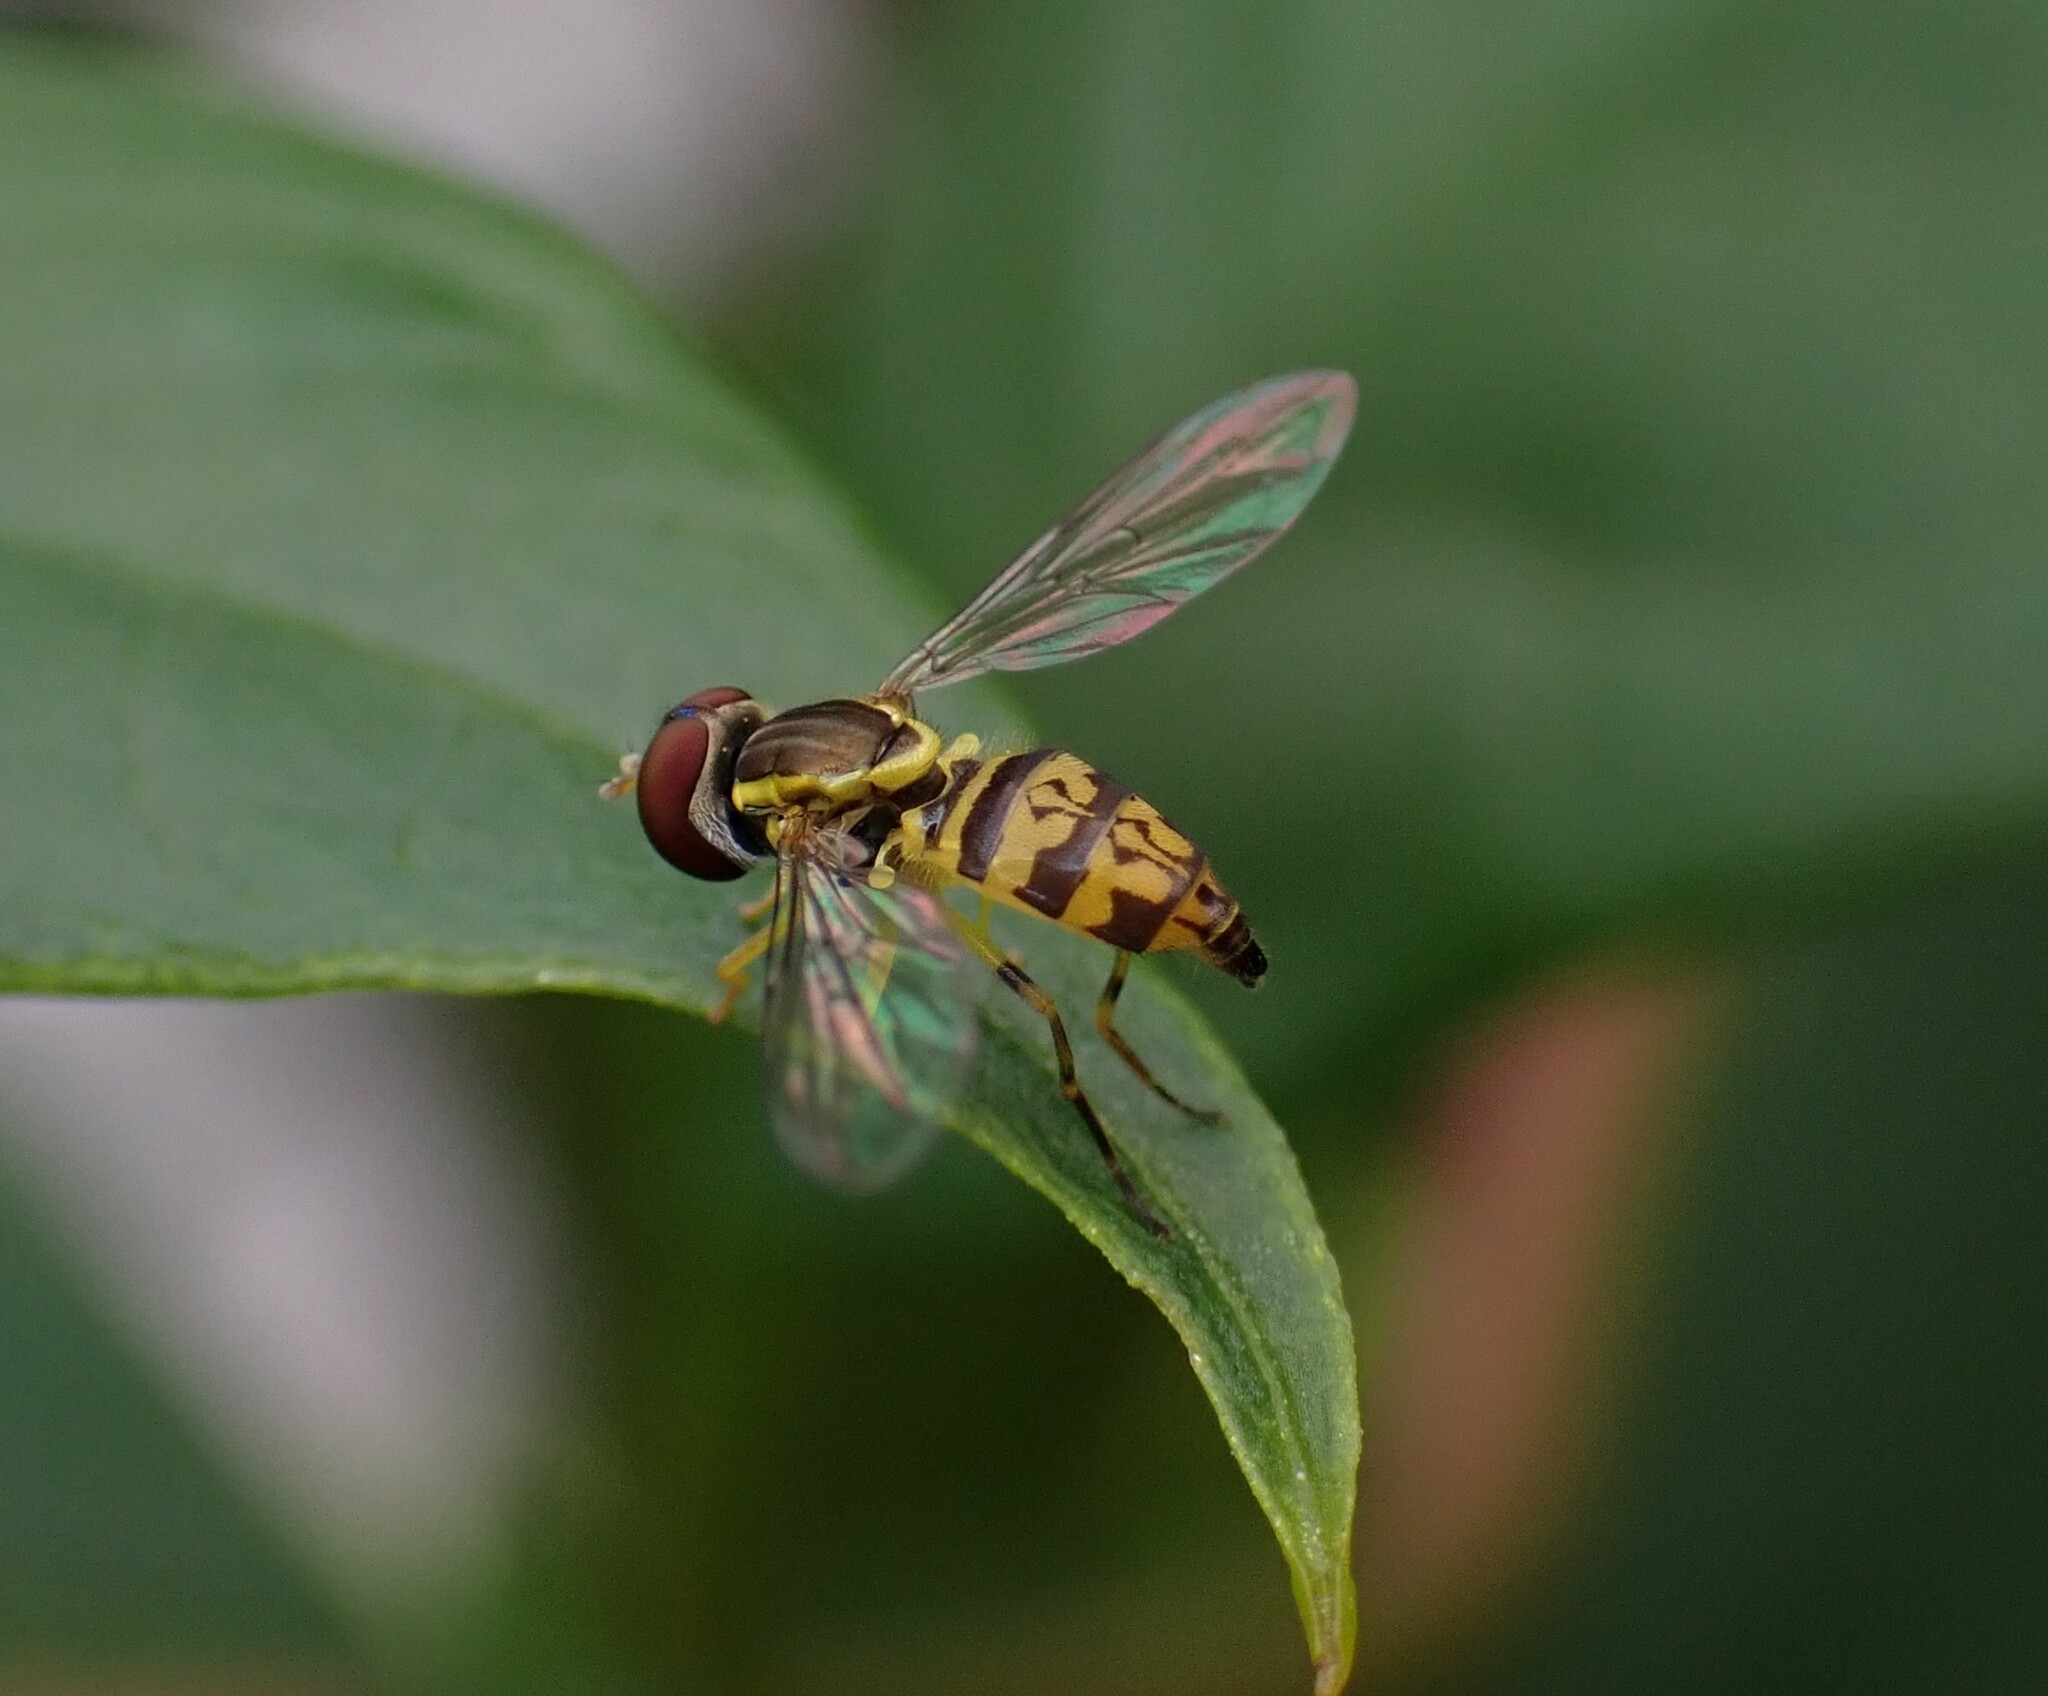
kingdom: Animalia
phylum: Arthropoda
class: Insecta
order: Diptera
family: Syrphidae
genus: Toxomerus
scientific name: Toxomerus geminatus
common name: Eastern calligrapher
